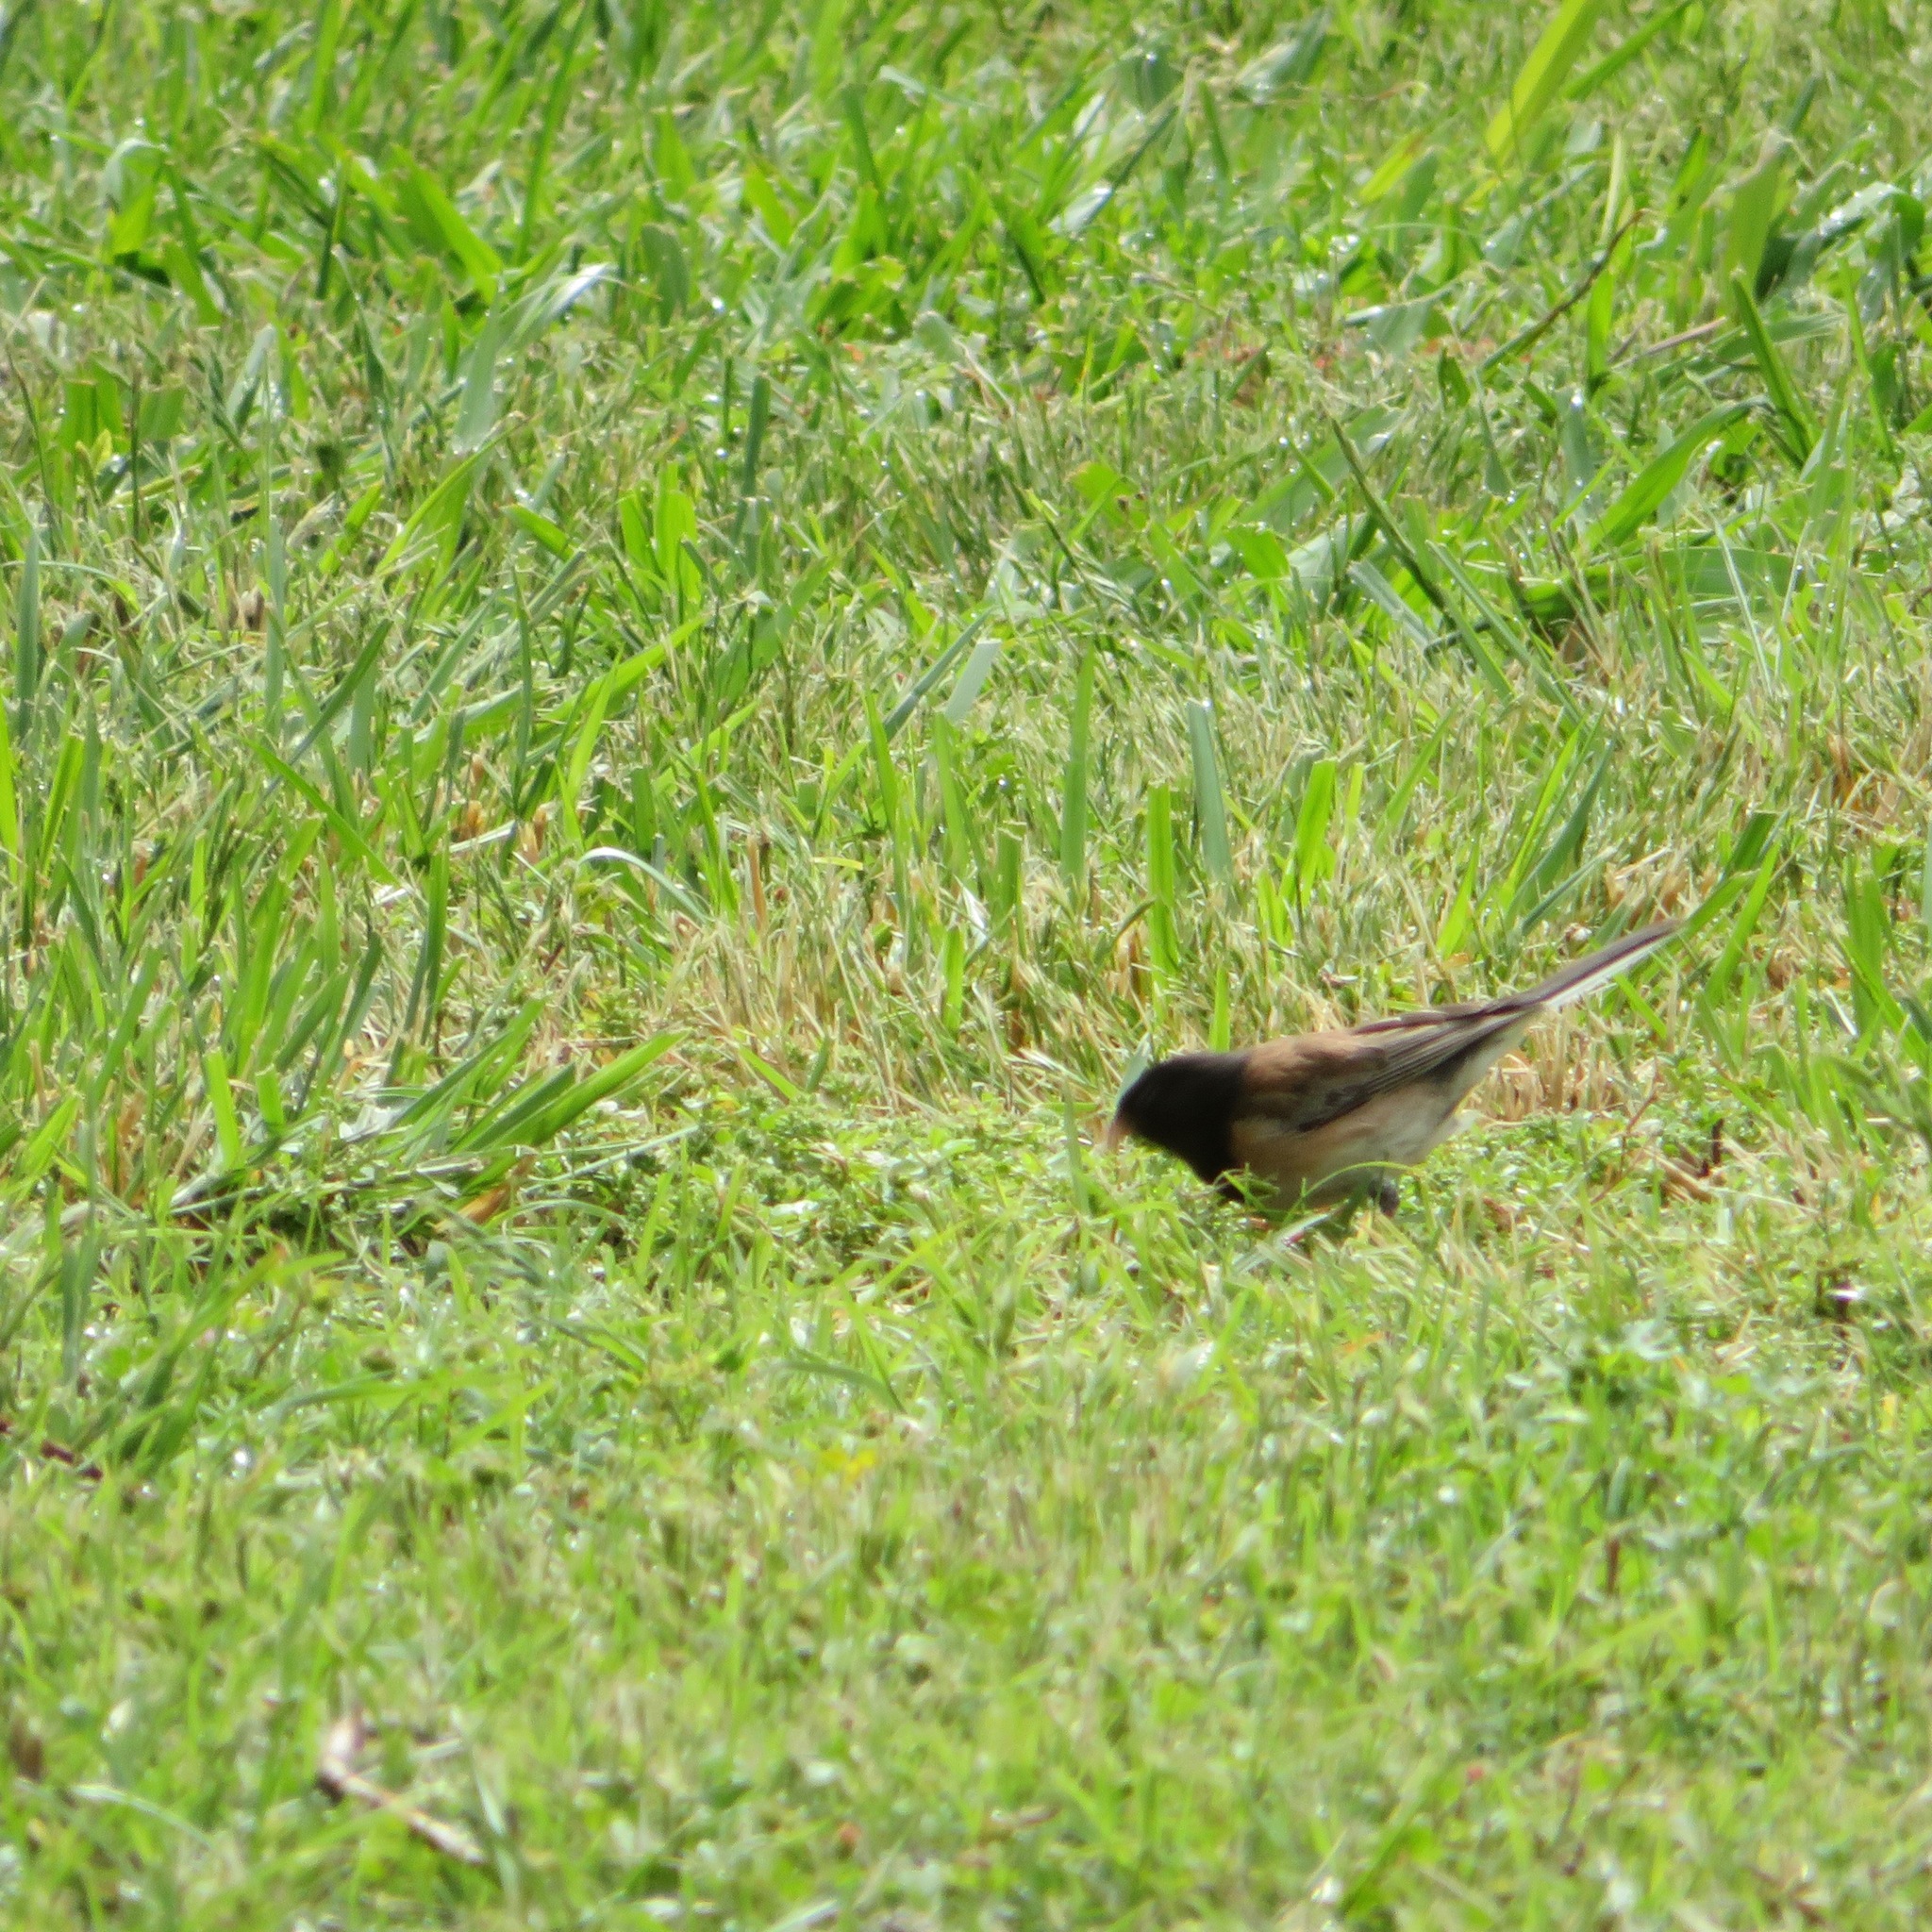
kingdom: Animalia
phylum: Chordata
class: Aves
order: Passeriformes
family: Passerellidae
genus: Junco
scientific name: Junco hyemalis
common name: Dark-eyed junco
